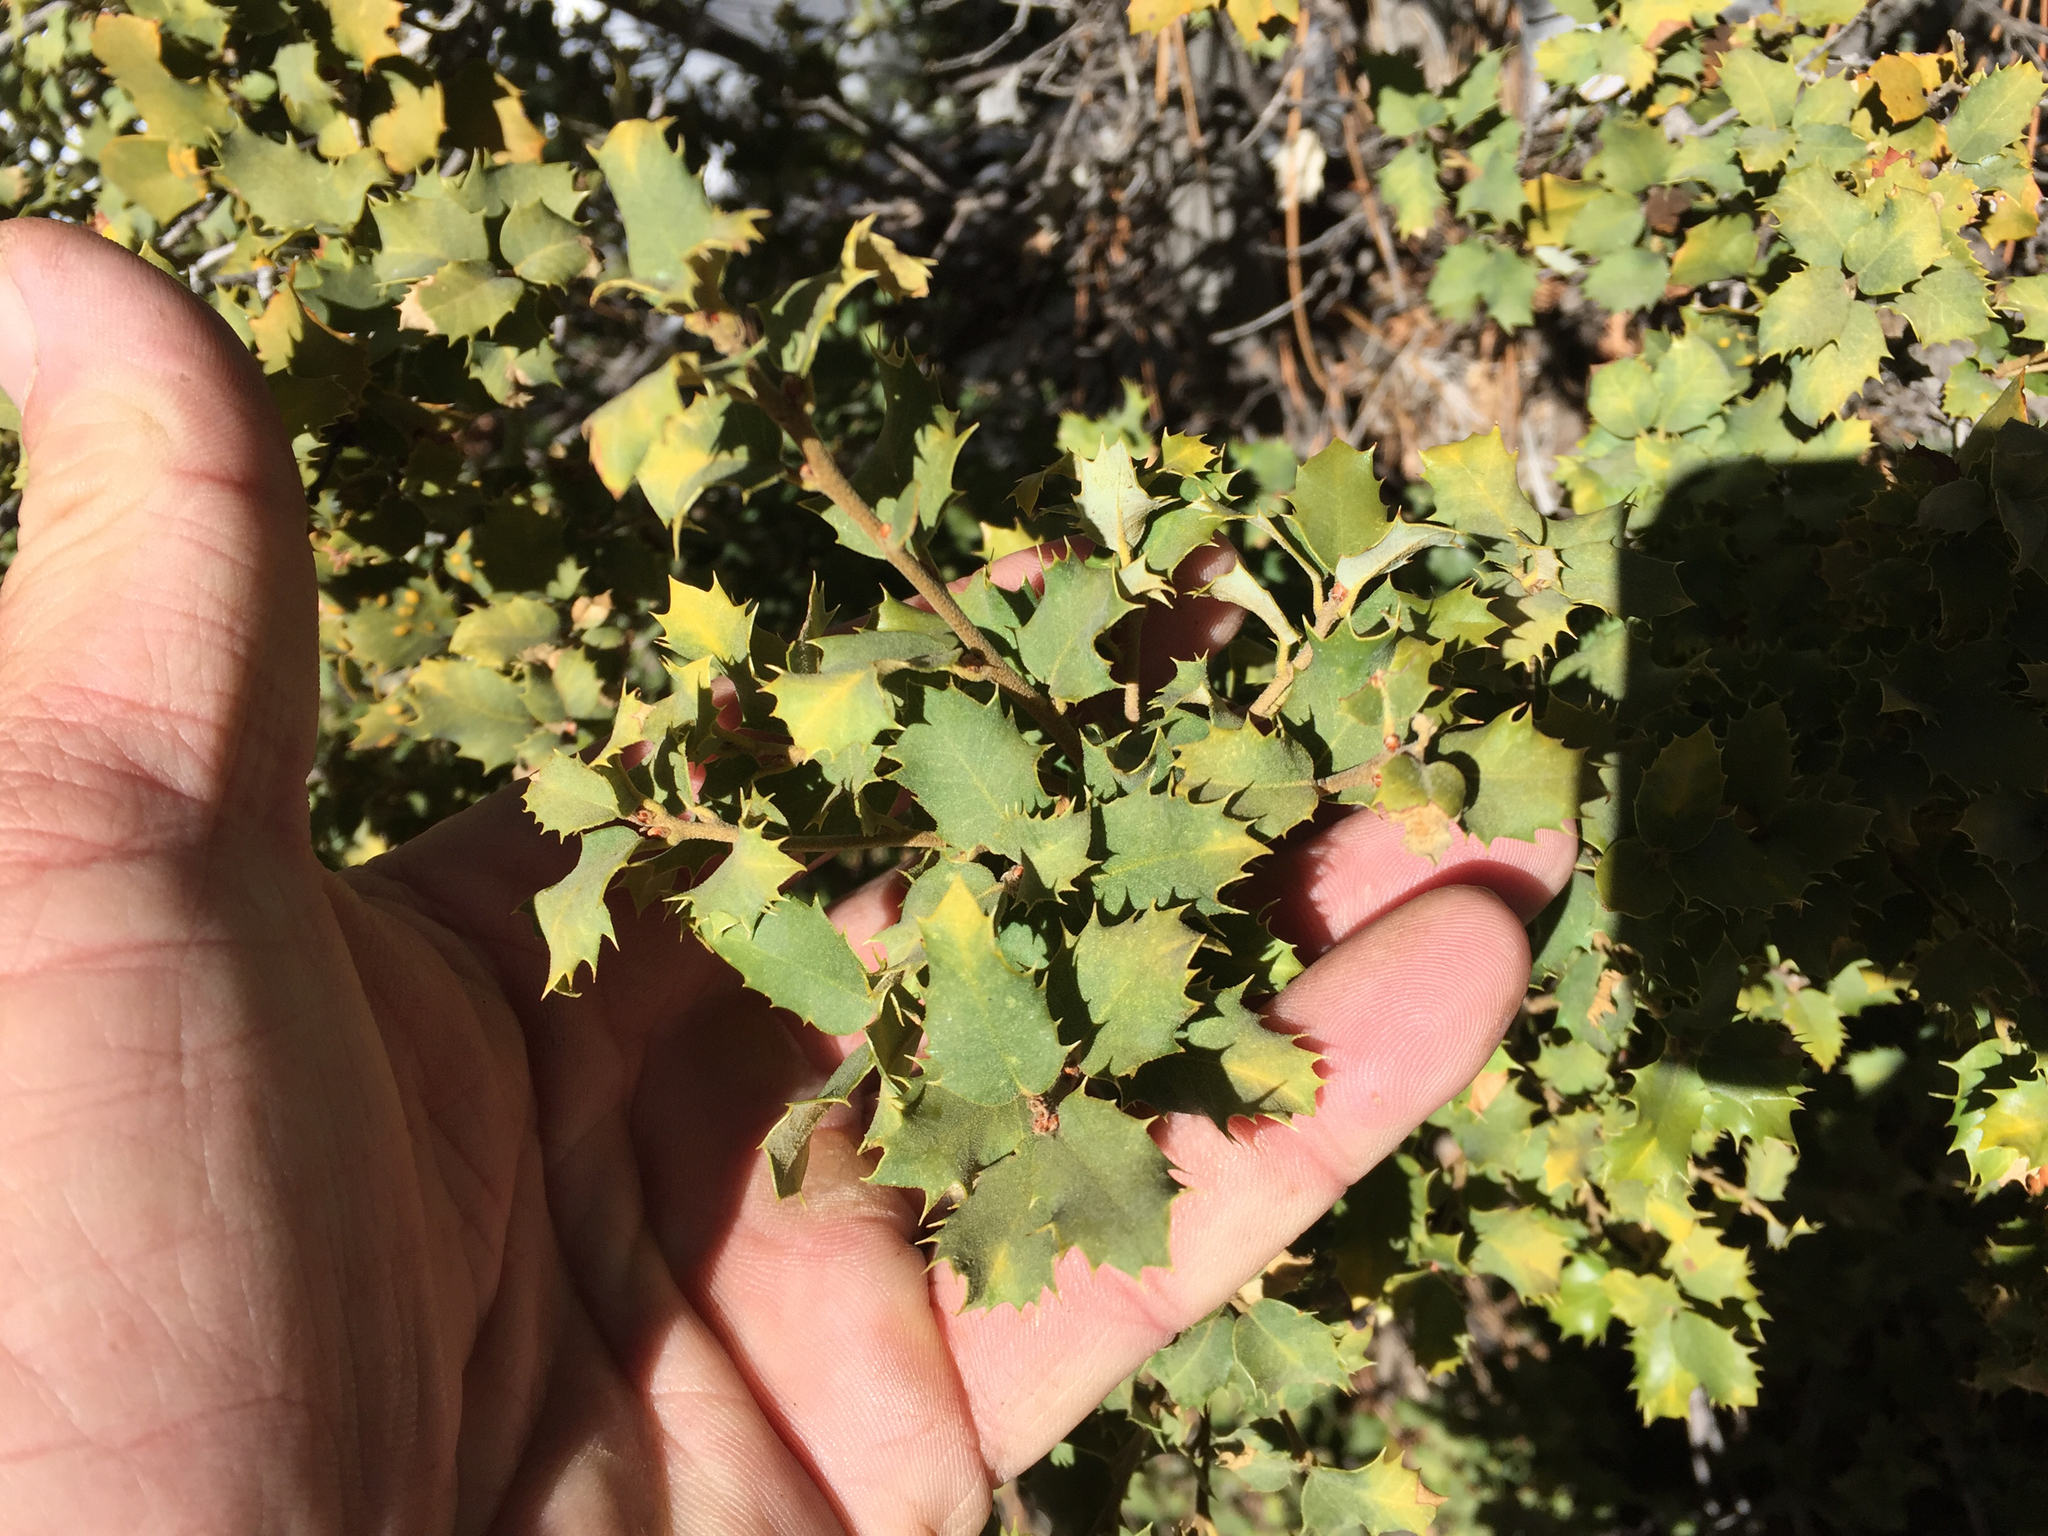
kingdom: Plantae
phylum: Tracheophyta
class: Magnoliopsida
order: Fagales
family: Fagaceae
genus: Quercus
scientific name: Quercus palmeri
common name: Dunn oak
